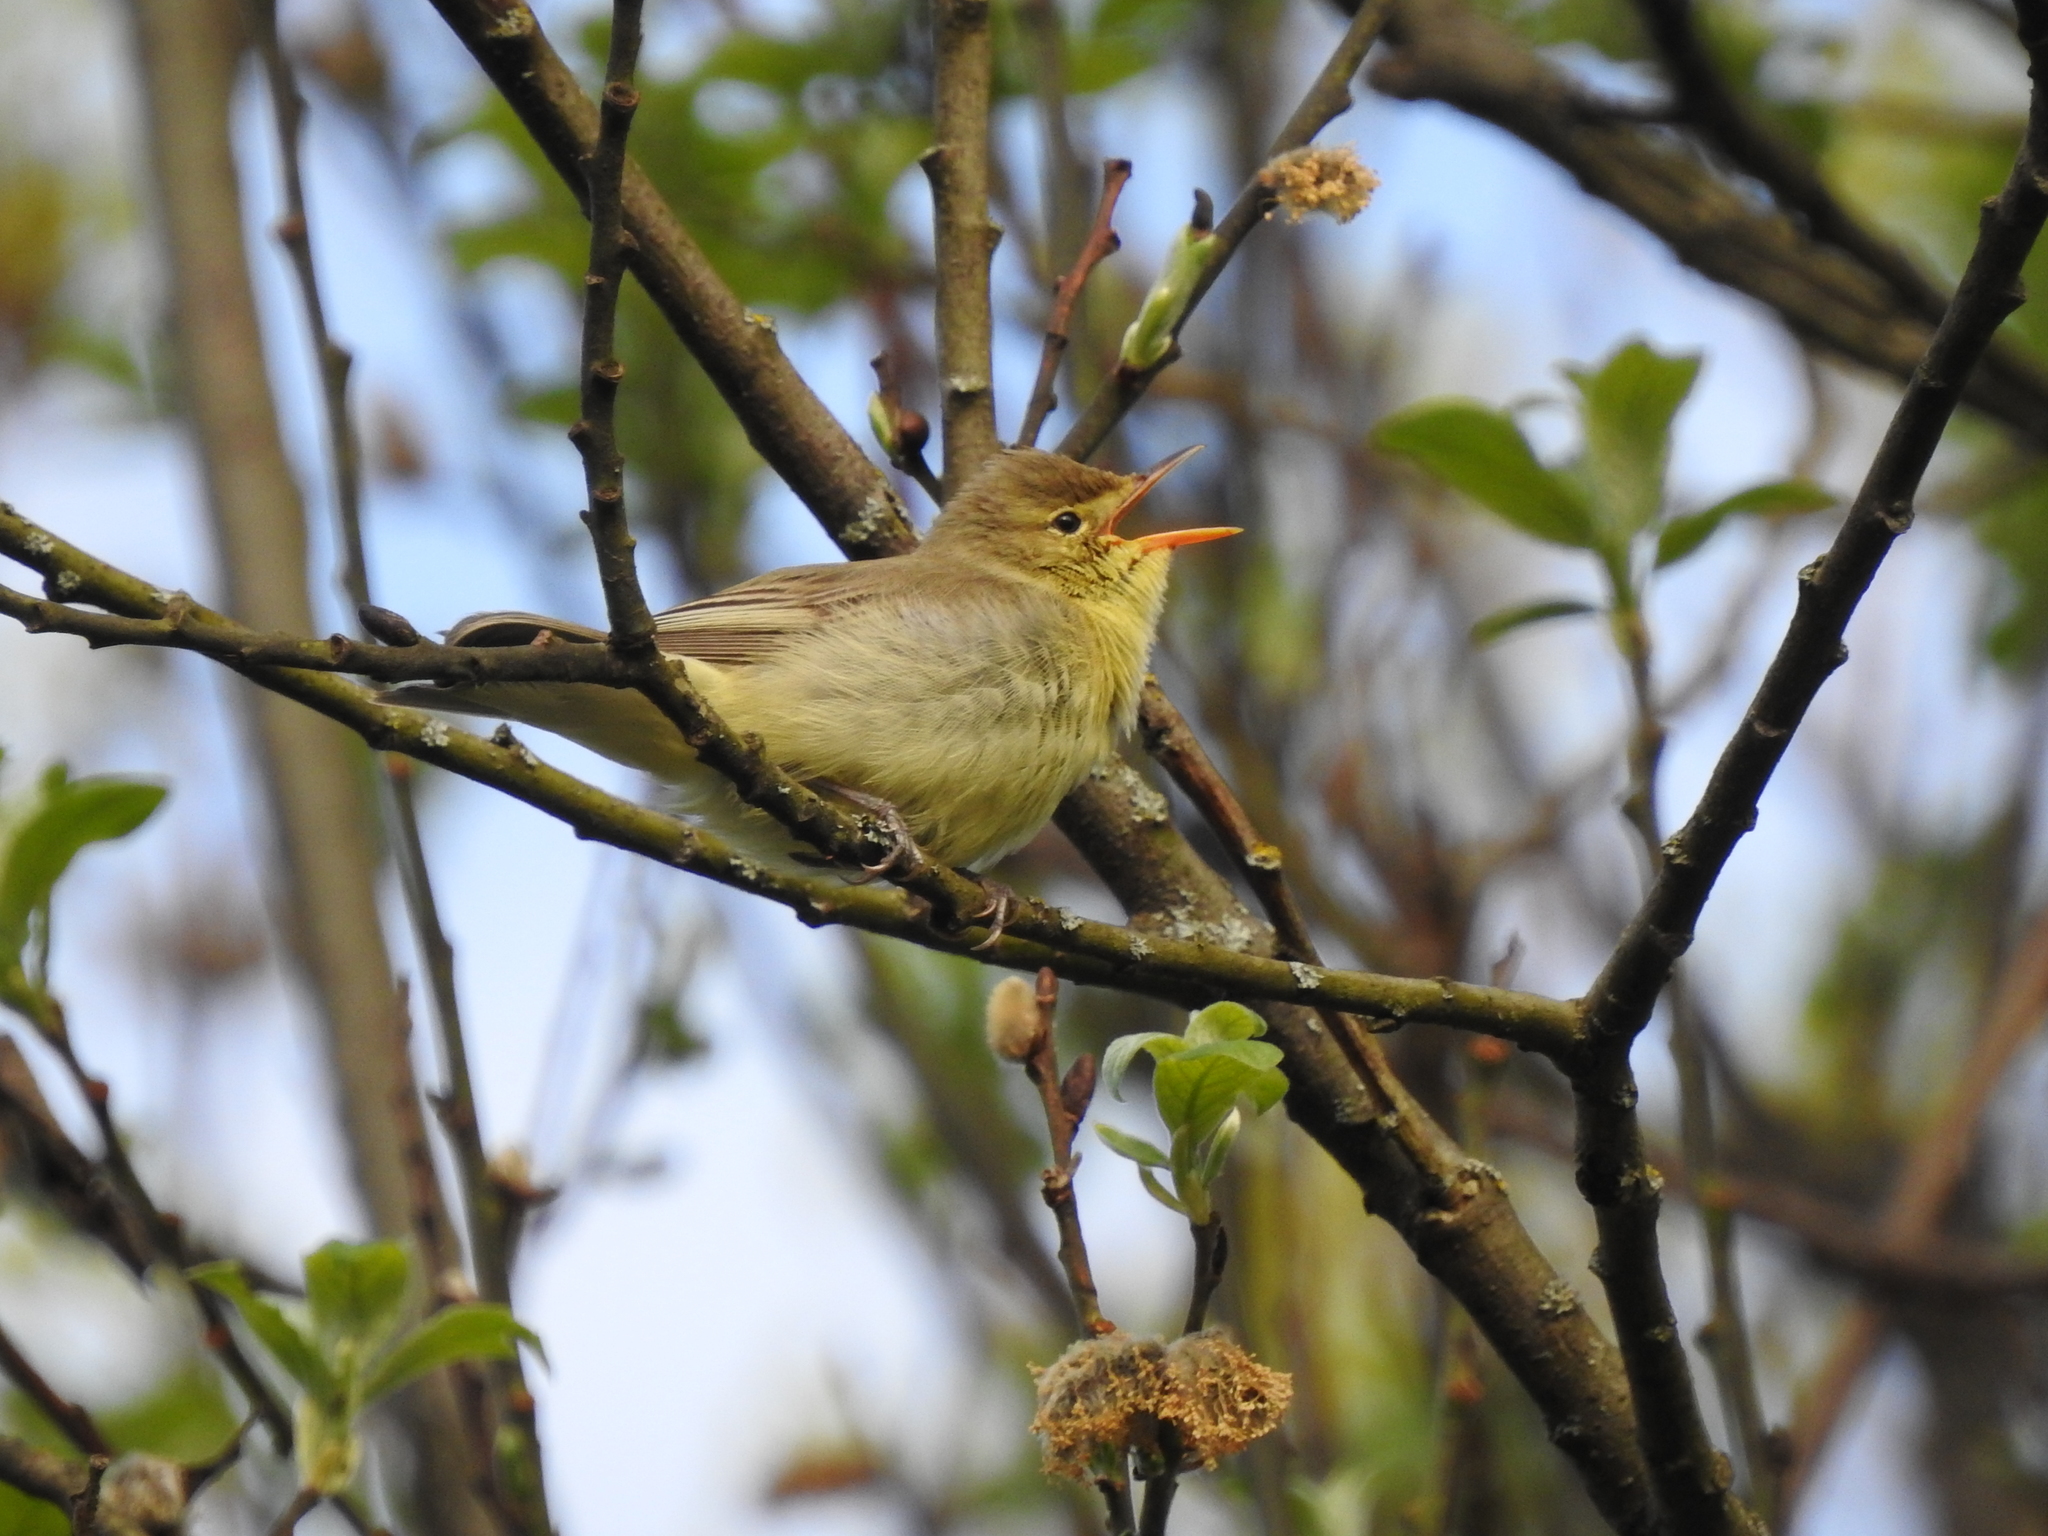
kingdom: Animalia
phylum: Chordata
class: Aves
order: Passeriformes
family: Acrocephalidae
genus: Hippolais
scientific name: Hippolais icterina
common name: Icterine warbler
